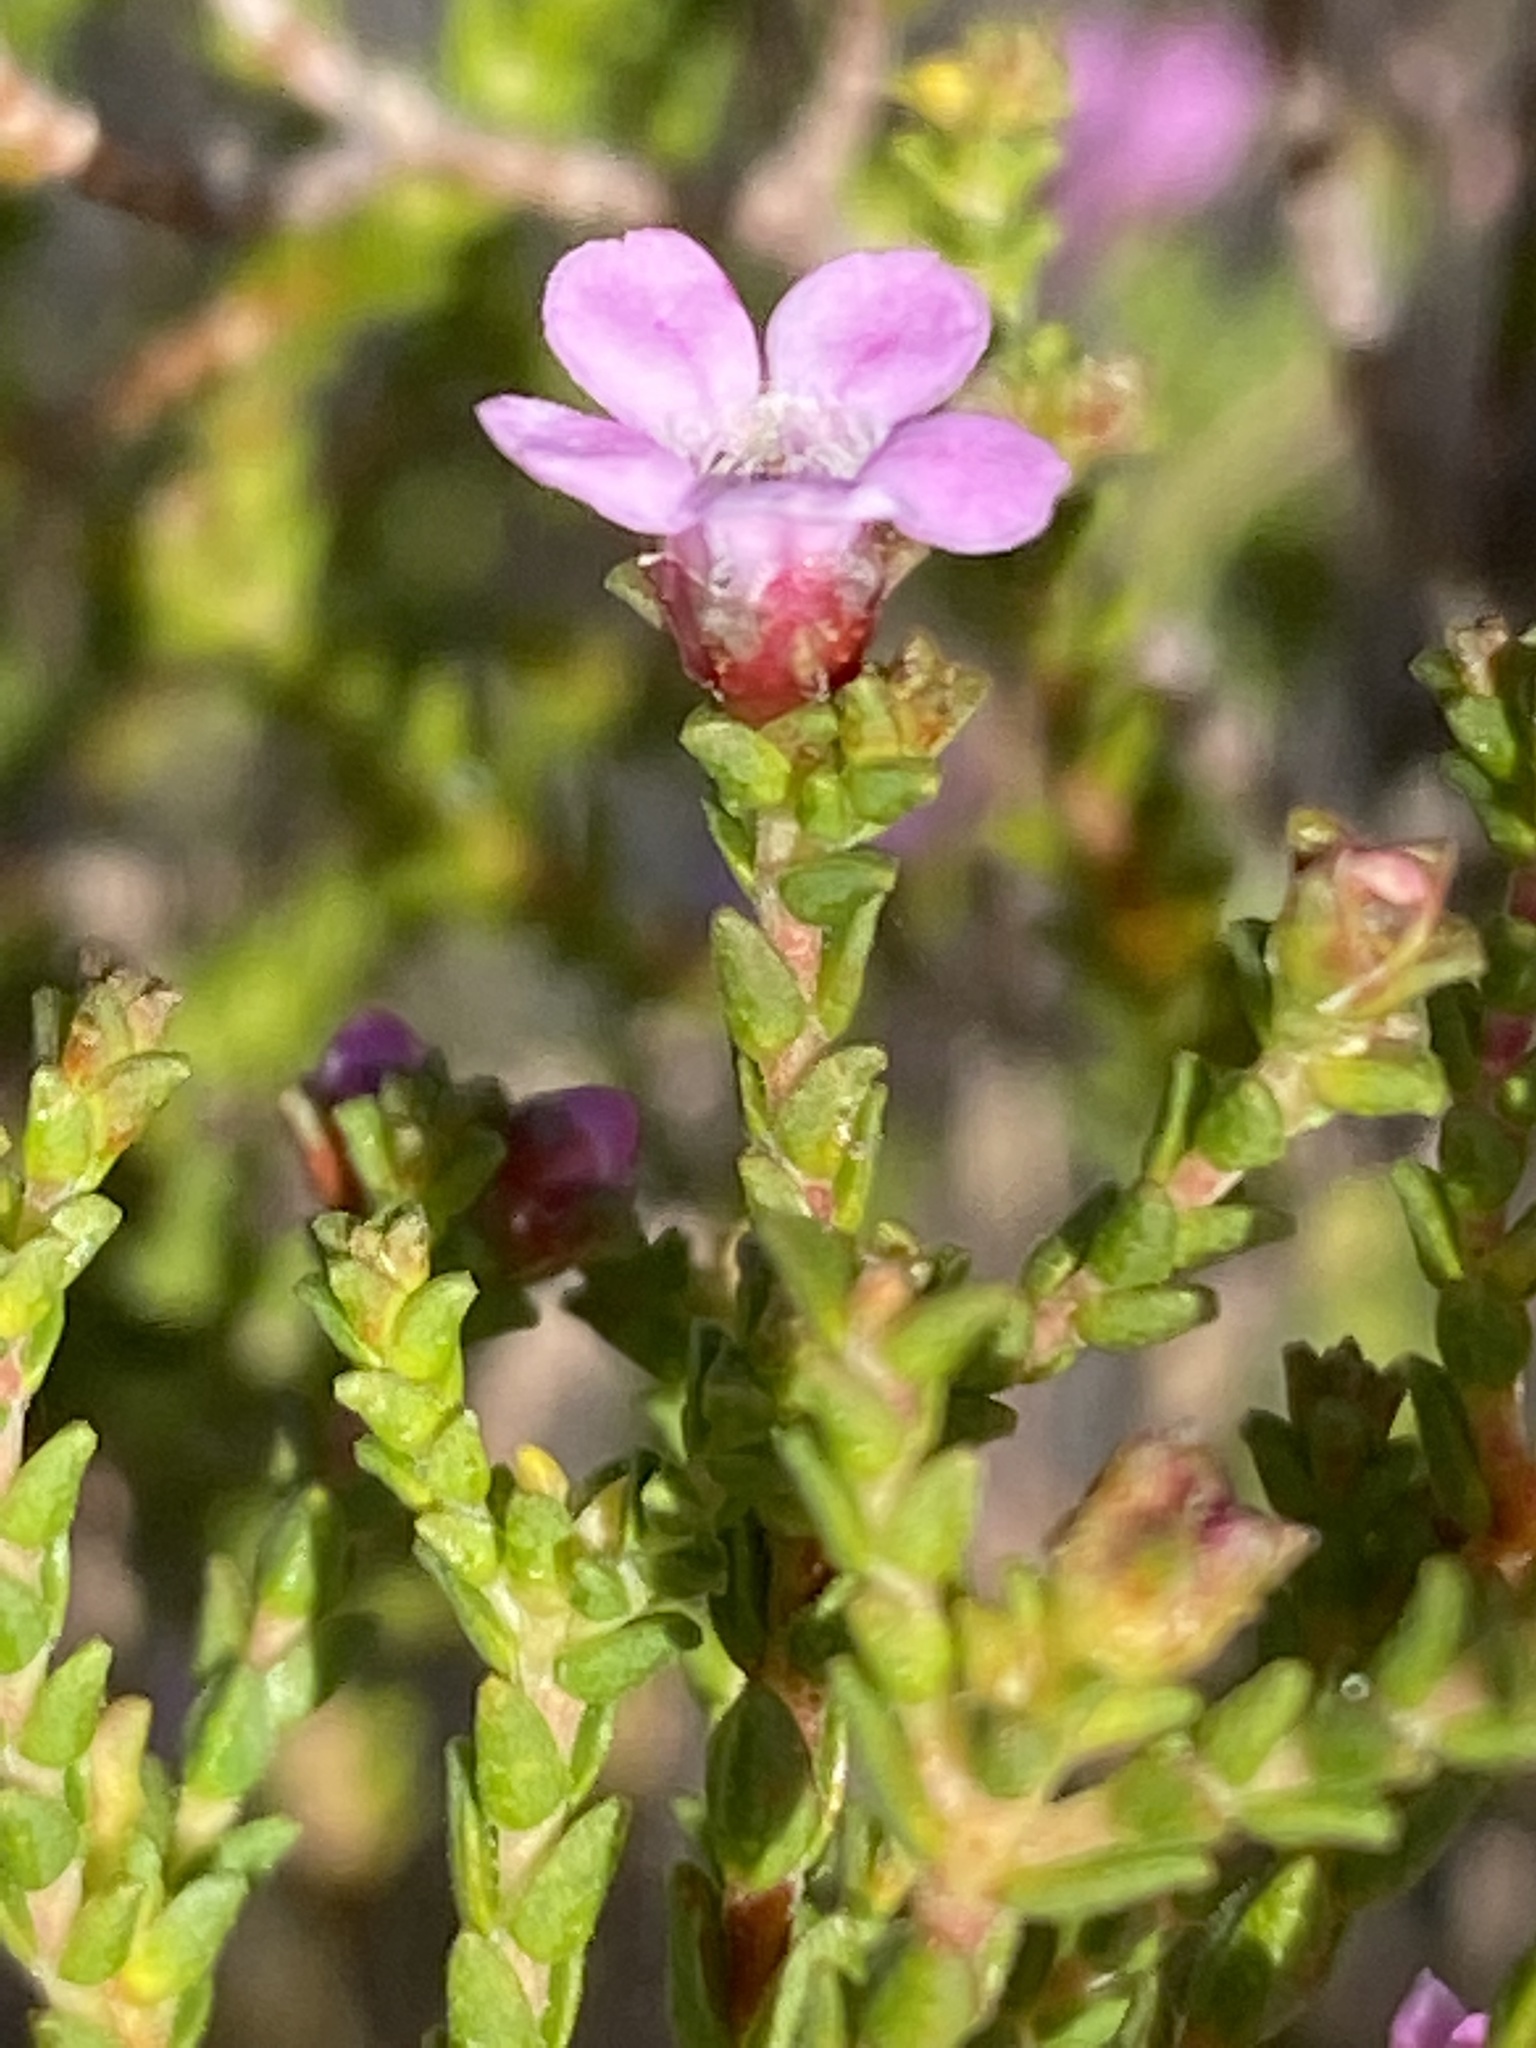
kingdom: Plantae
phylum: Tracheophyta
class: Magnoliopsida
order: Sapindales
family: Rutaceae
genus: Euchaetis
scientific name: Euchaetis albertiniana
